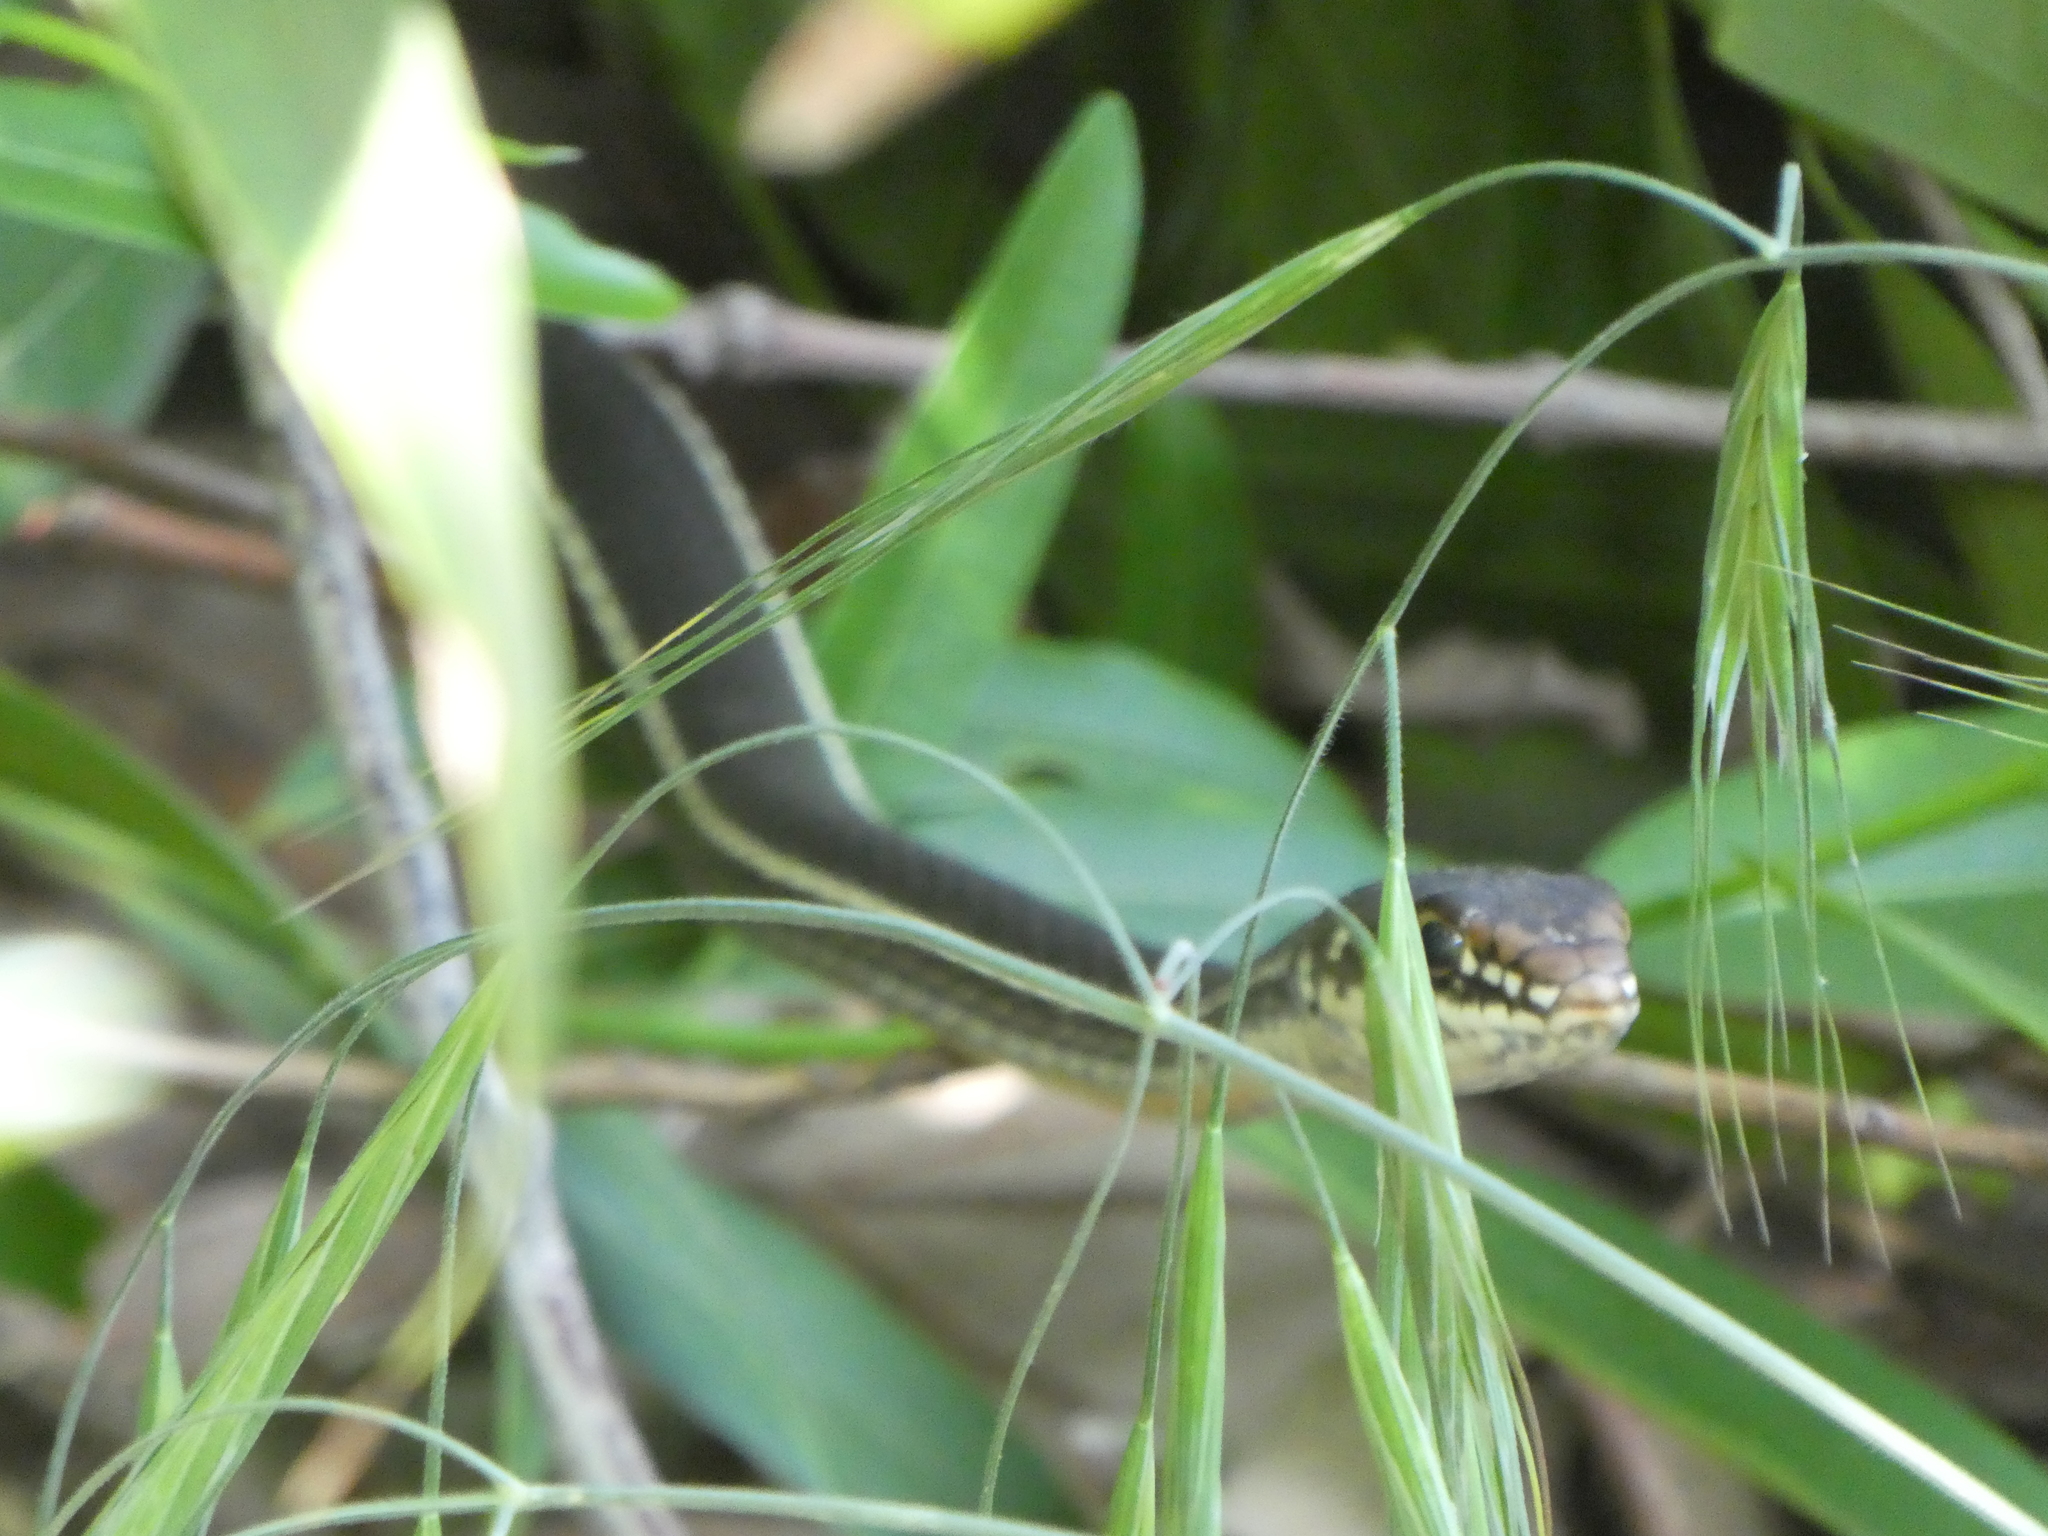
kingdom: Animalia
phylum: Chordata
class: Squamata
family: Colubridae
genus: Masticophis
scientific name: Masticophis lateralis
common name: Striped racer
